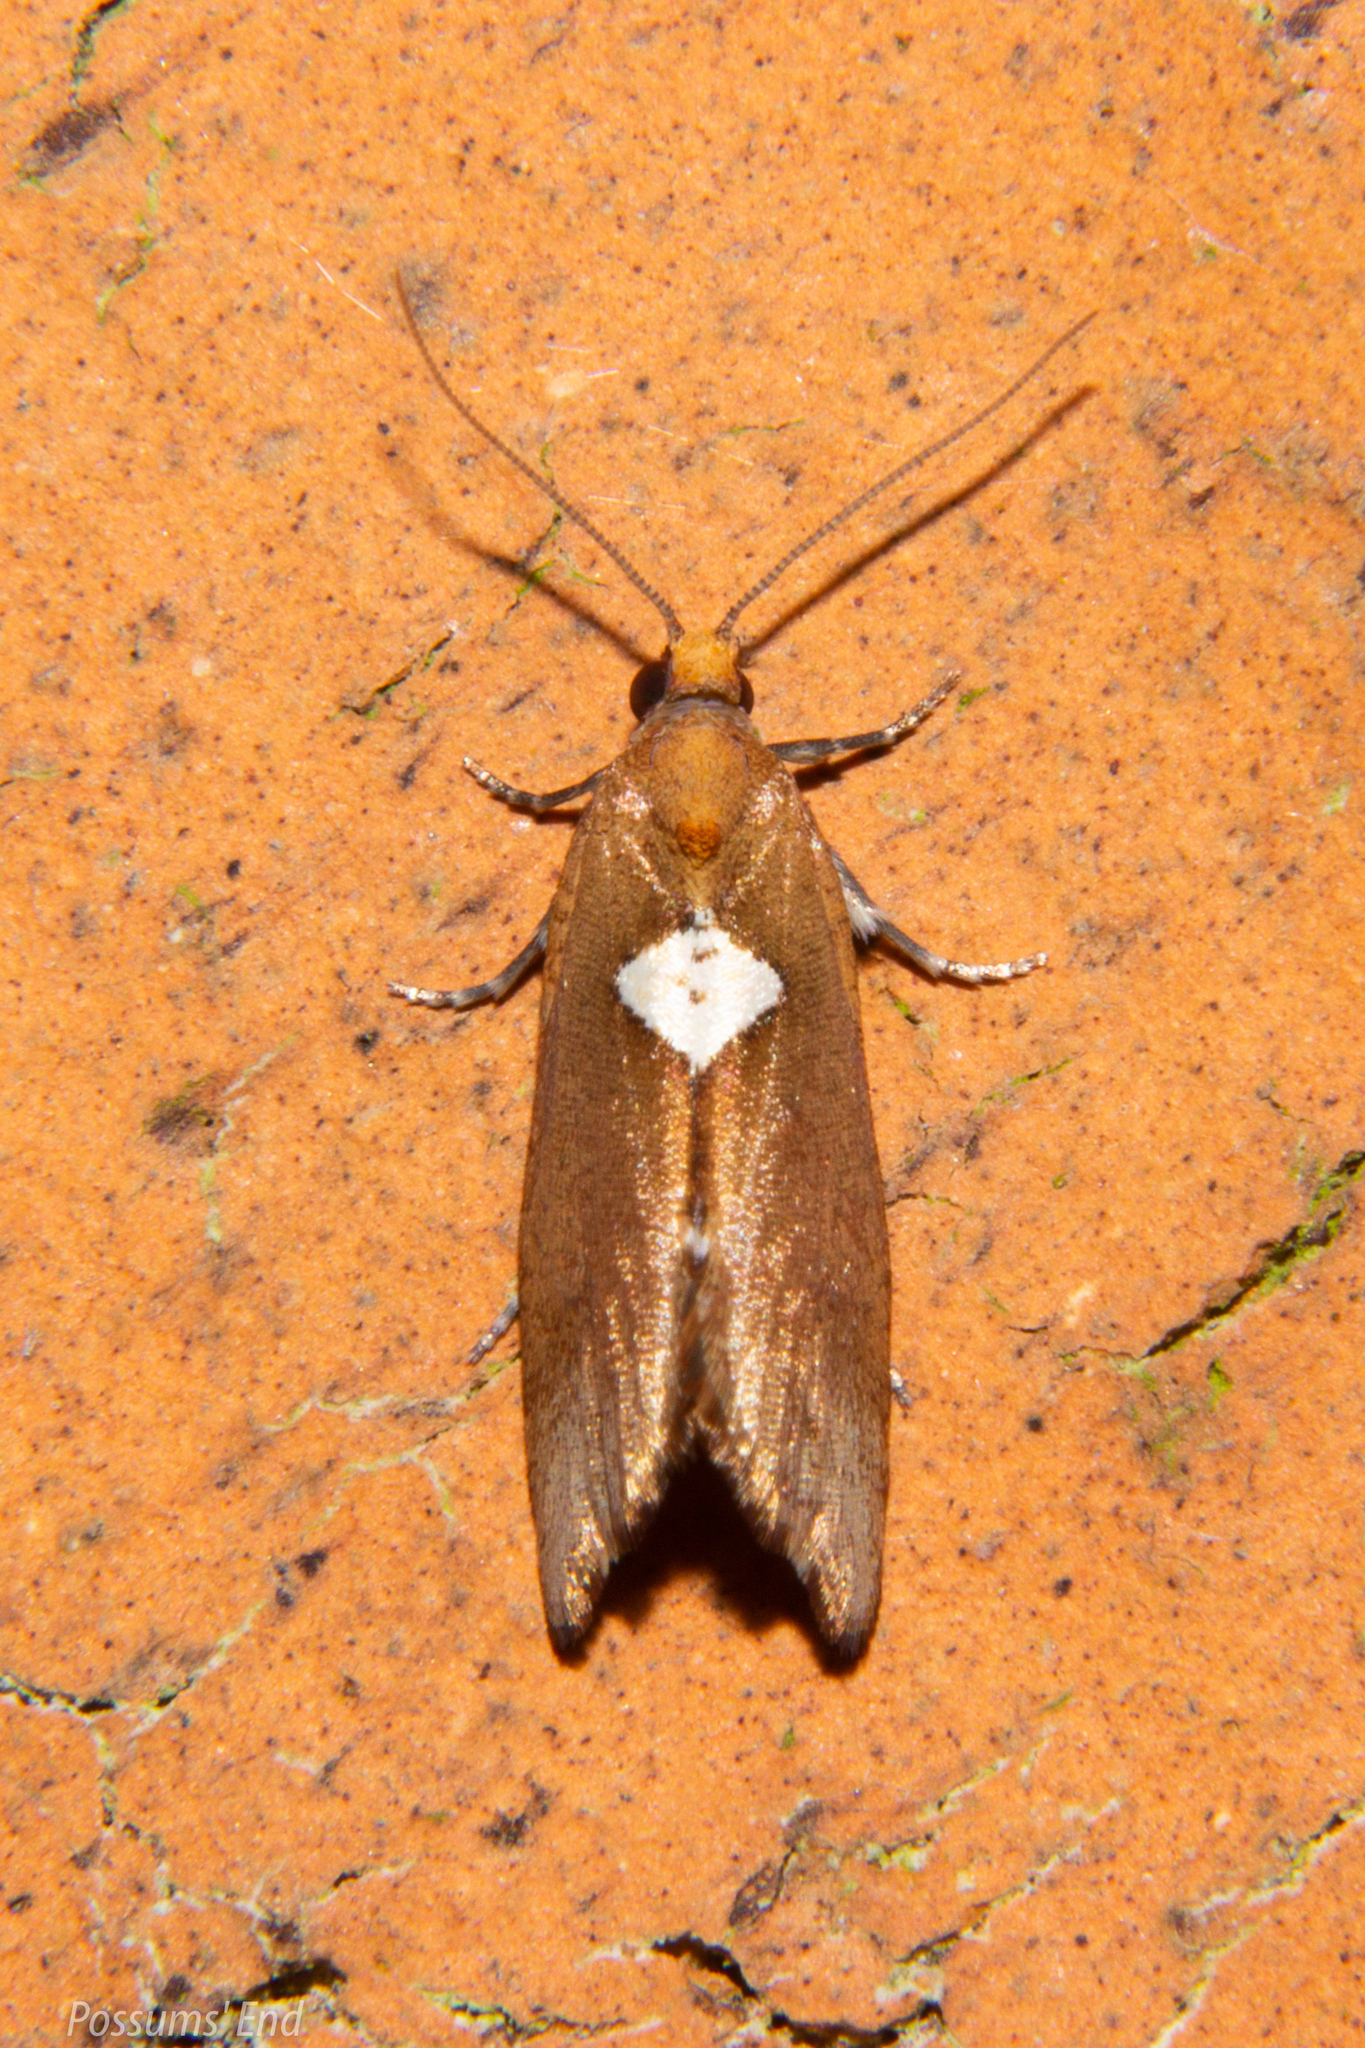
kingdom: Animalia
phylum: Arthropoda
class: Insecta
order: Lepidoptera
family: Tortricidae
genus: Pyrgotis
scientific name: Pyrgotis pyramidias
